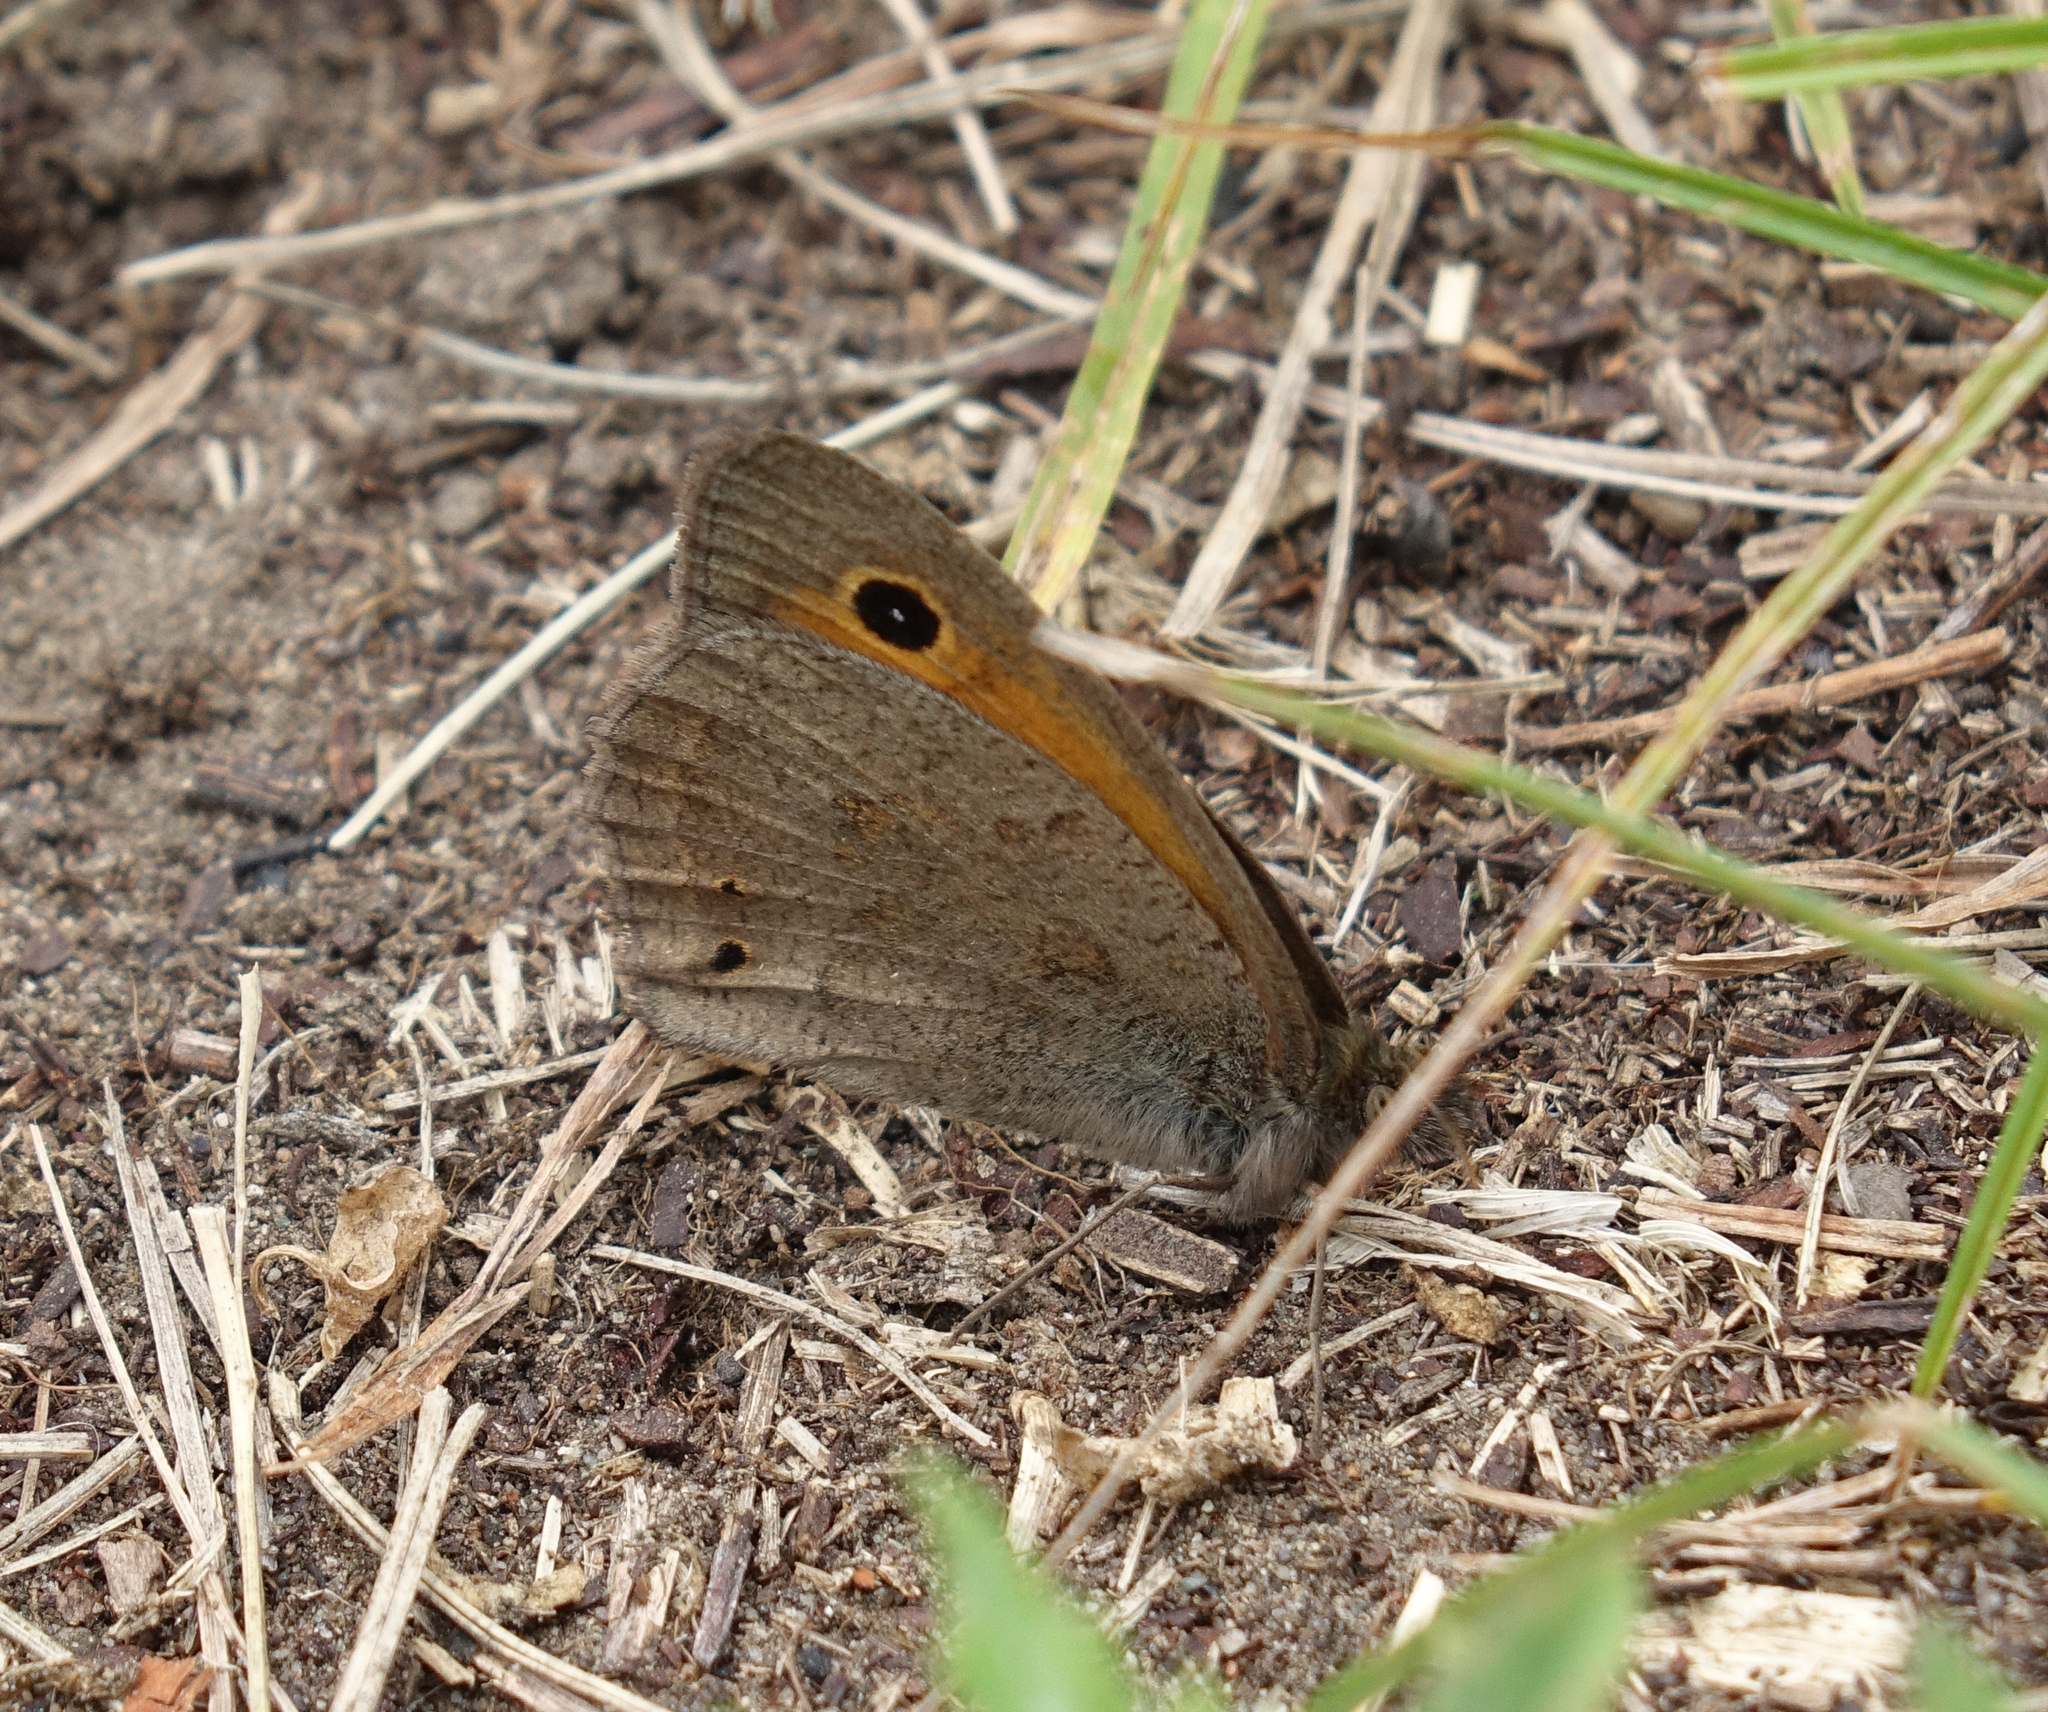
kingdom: Animalia
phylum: Arthropoda
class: Insecta
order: Lepidoptera
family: Nymphalidae
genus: Hyponephele
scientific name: Hyponephele lycaon
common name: Dusky meadow brown
